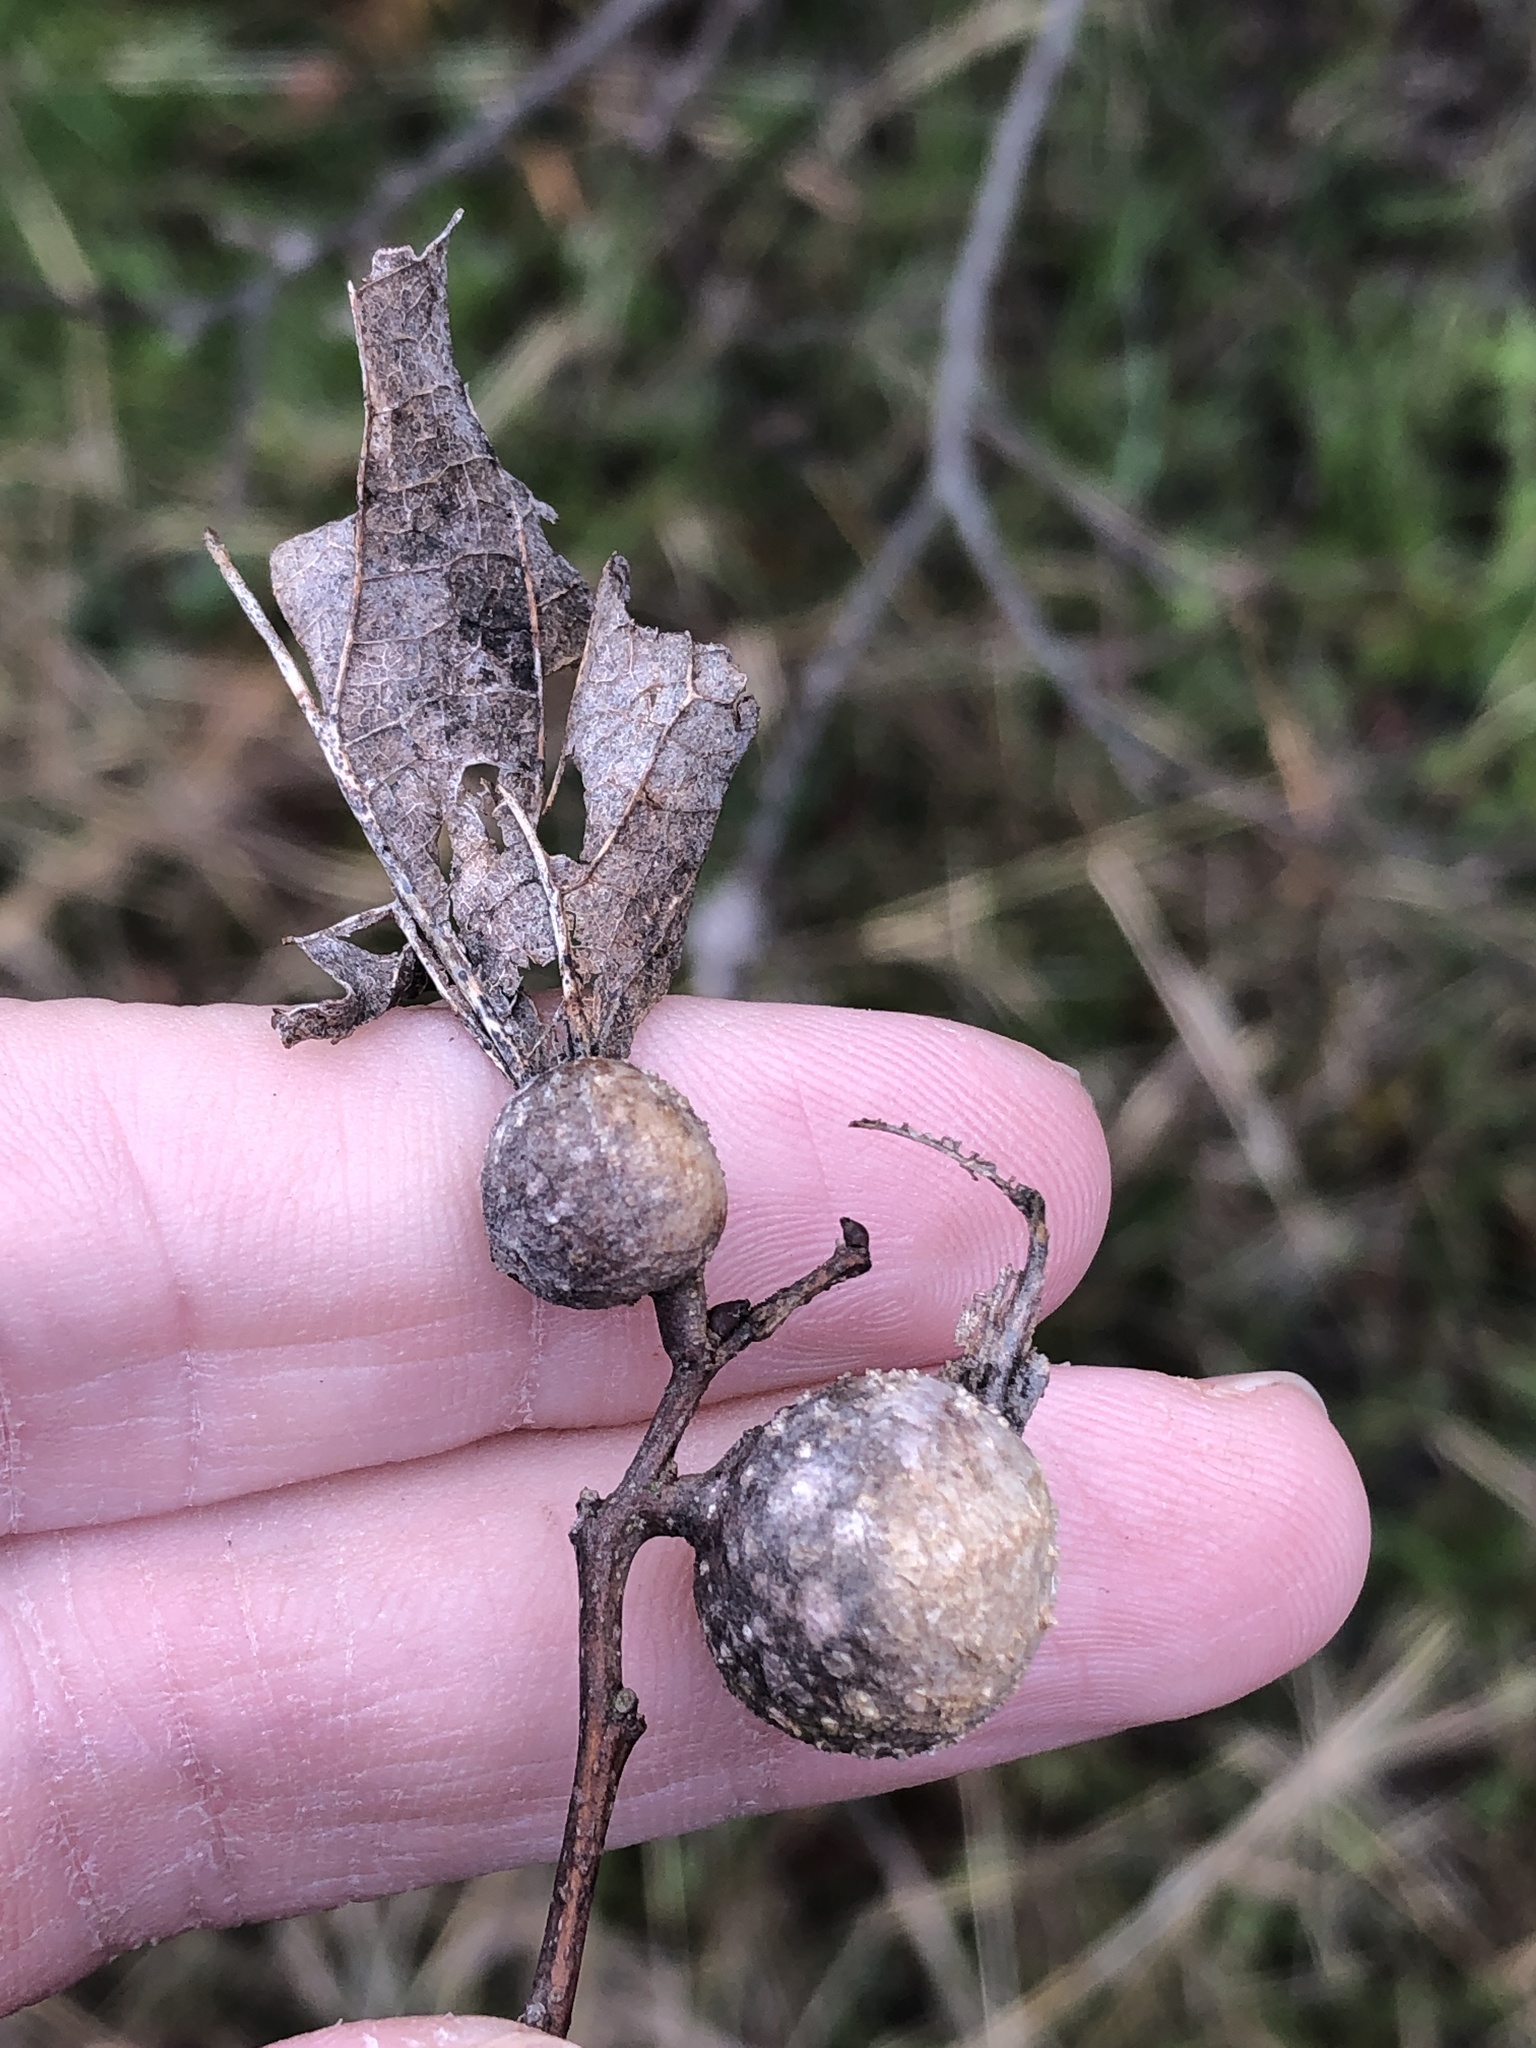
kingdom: Animalia
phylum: Arthropoda
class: Insecta
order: Hemiptera
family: Aphalaridae
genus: Pachypsylla
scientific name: Pachypsylla venusta
